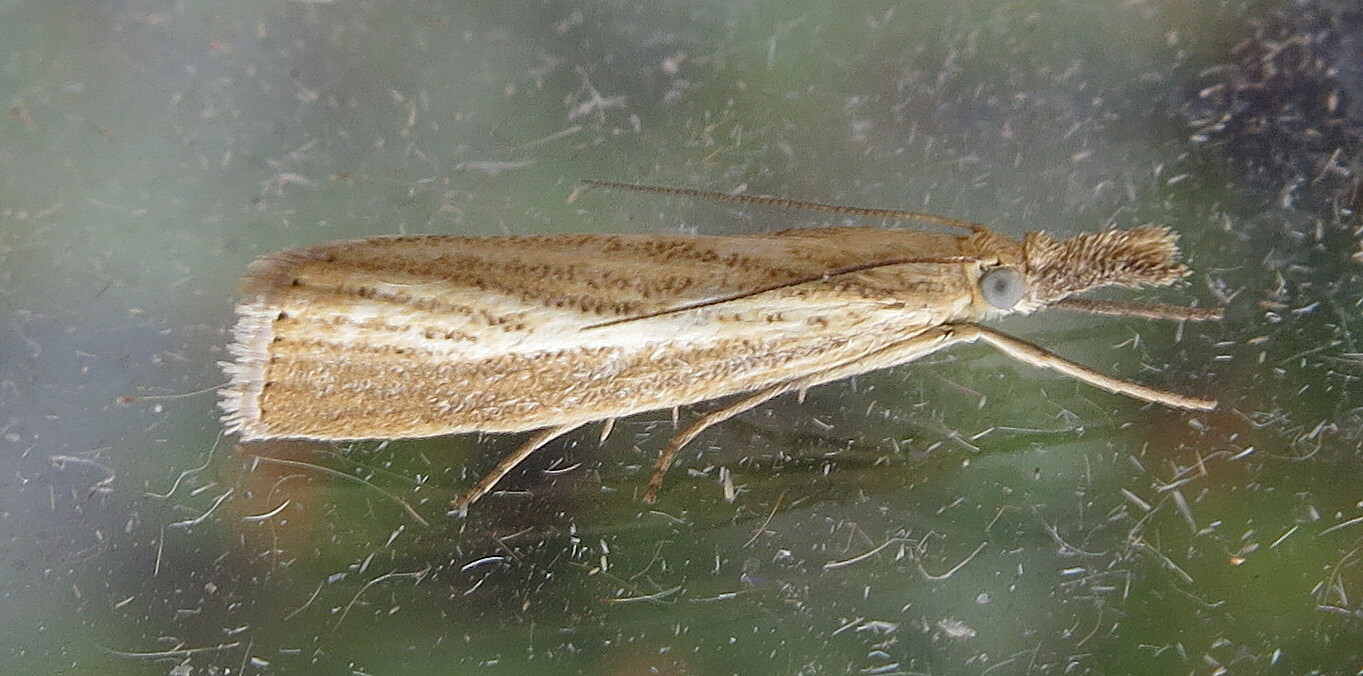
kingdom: Animalia
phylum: Arthropoda
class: Insecta
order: Lepidoptera
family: Crambidae
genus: Agriphila
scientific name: Agriphila straminella
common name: Straw grass-veneer
